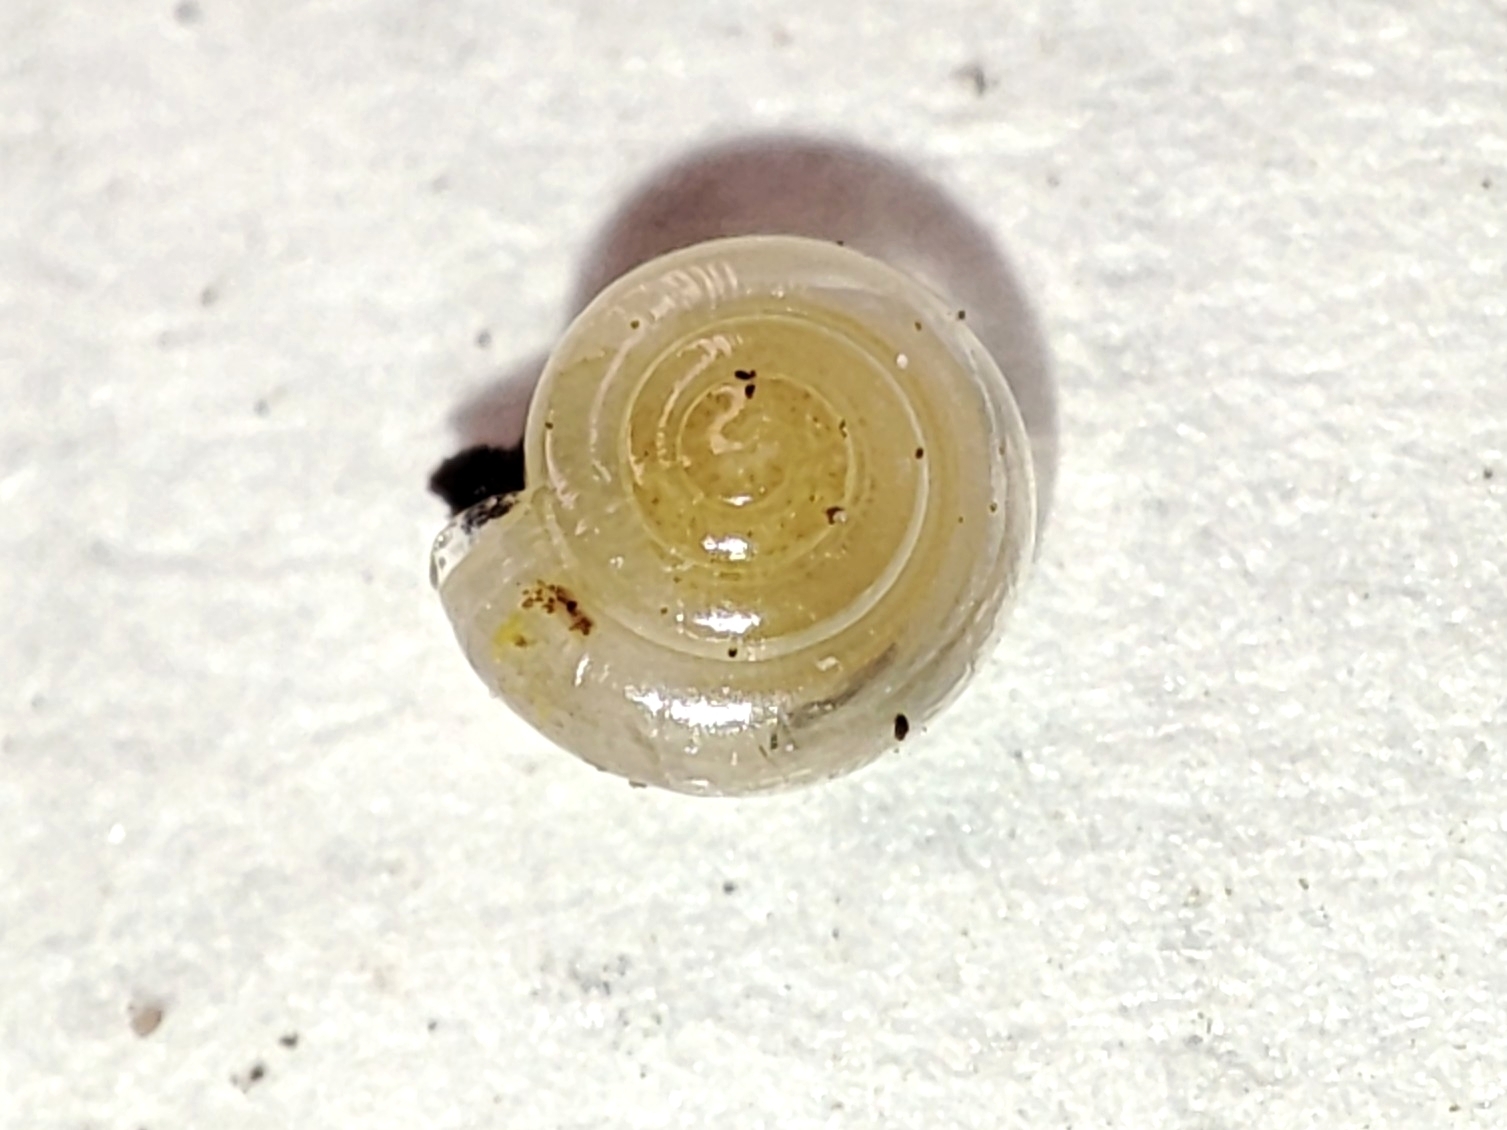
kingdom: Animalia
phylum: Mollusca
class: Gastropoda
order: Stylommatophora
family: Pristilomatidae
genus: Vitrea
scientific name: Vitrea contracta
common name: Milky crystal snail
